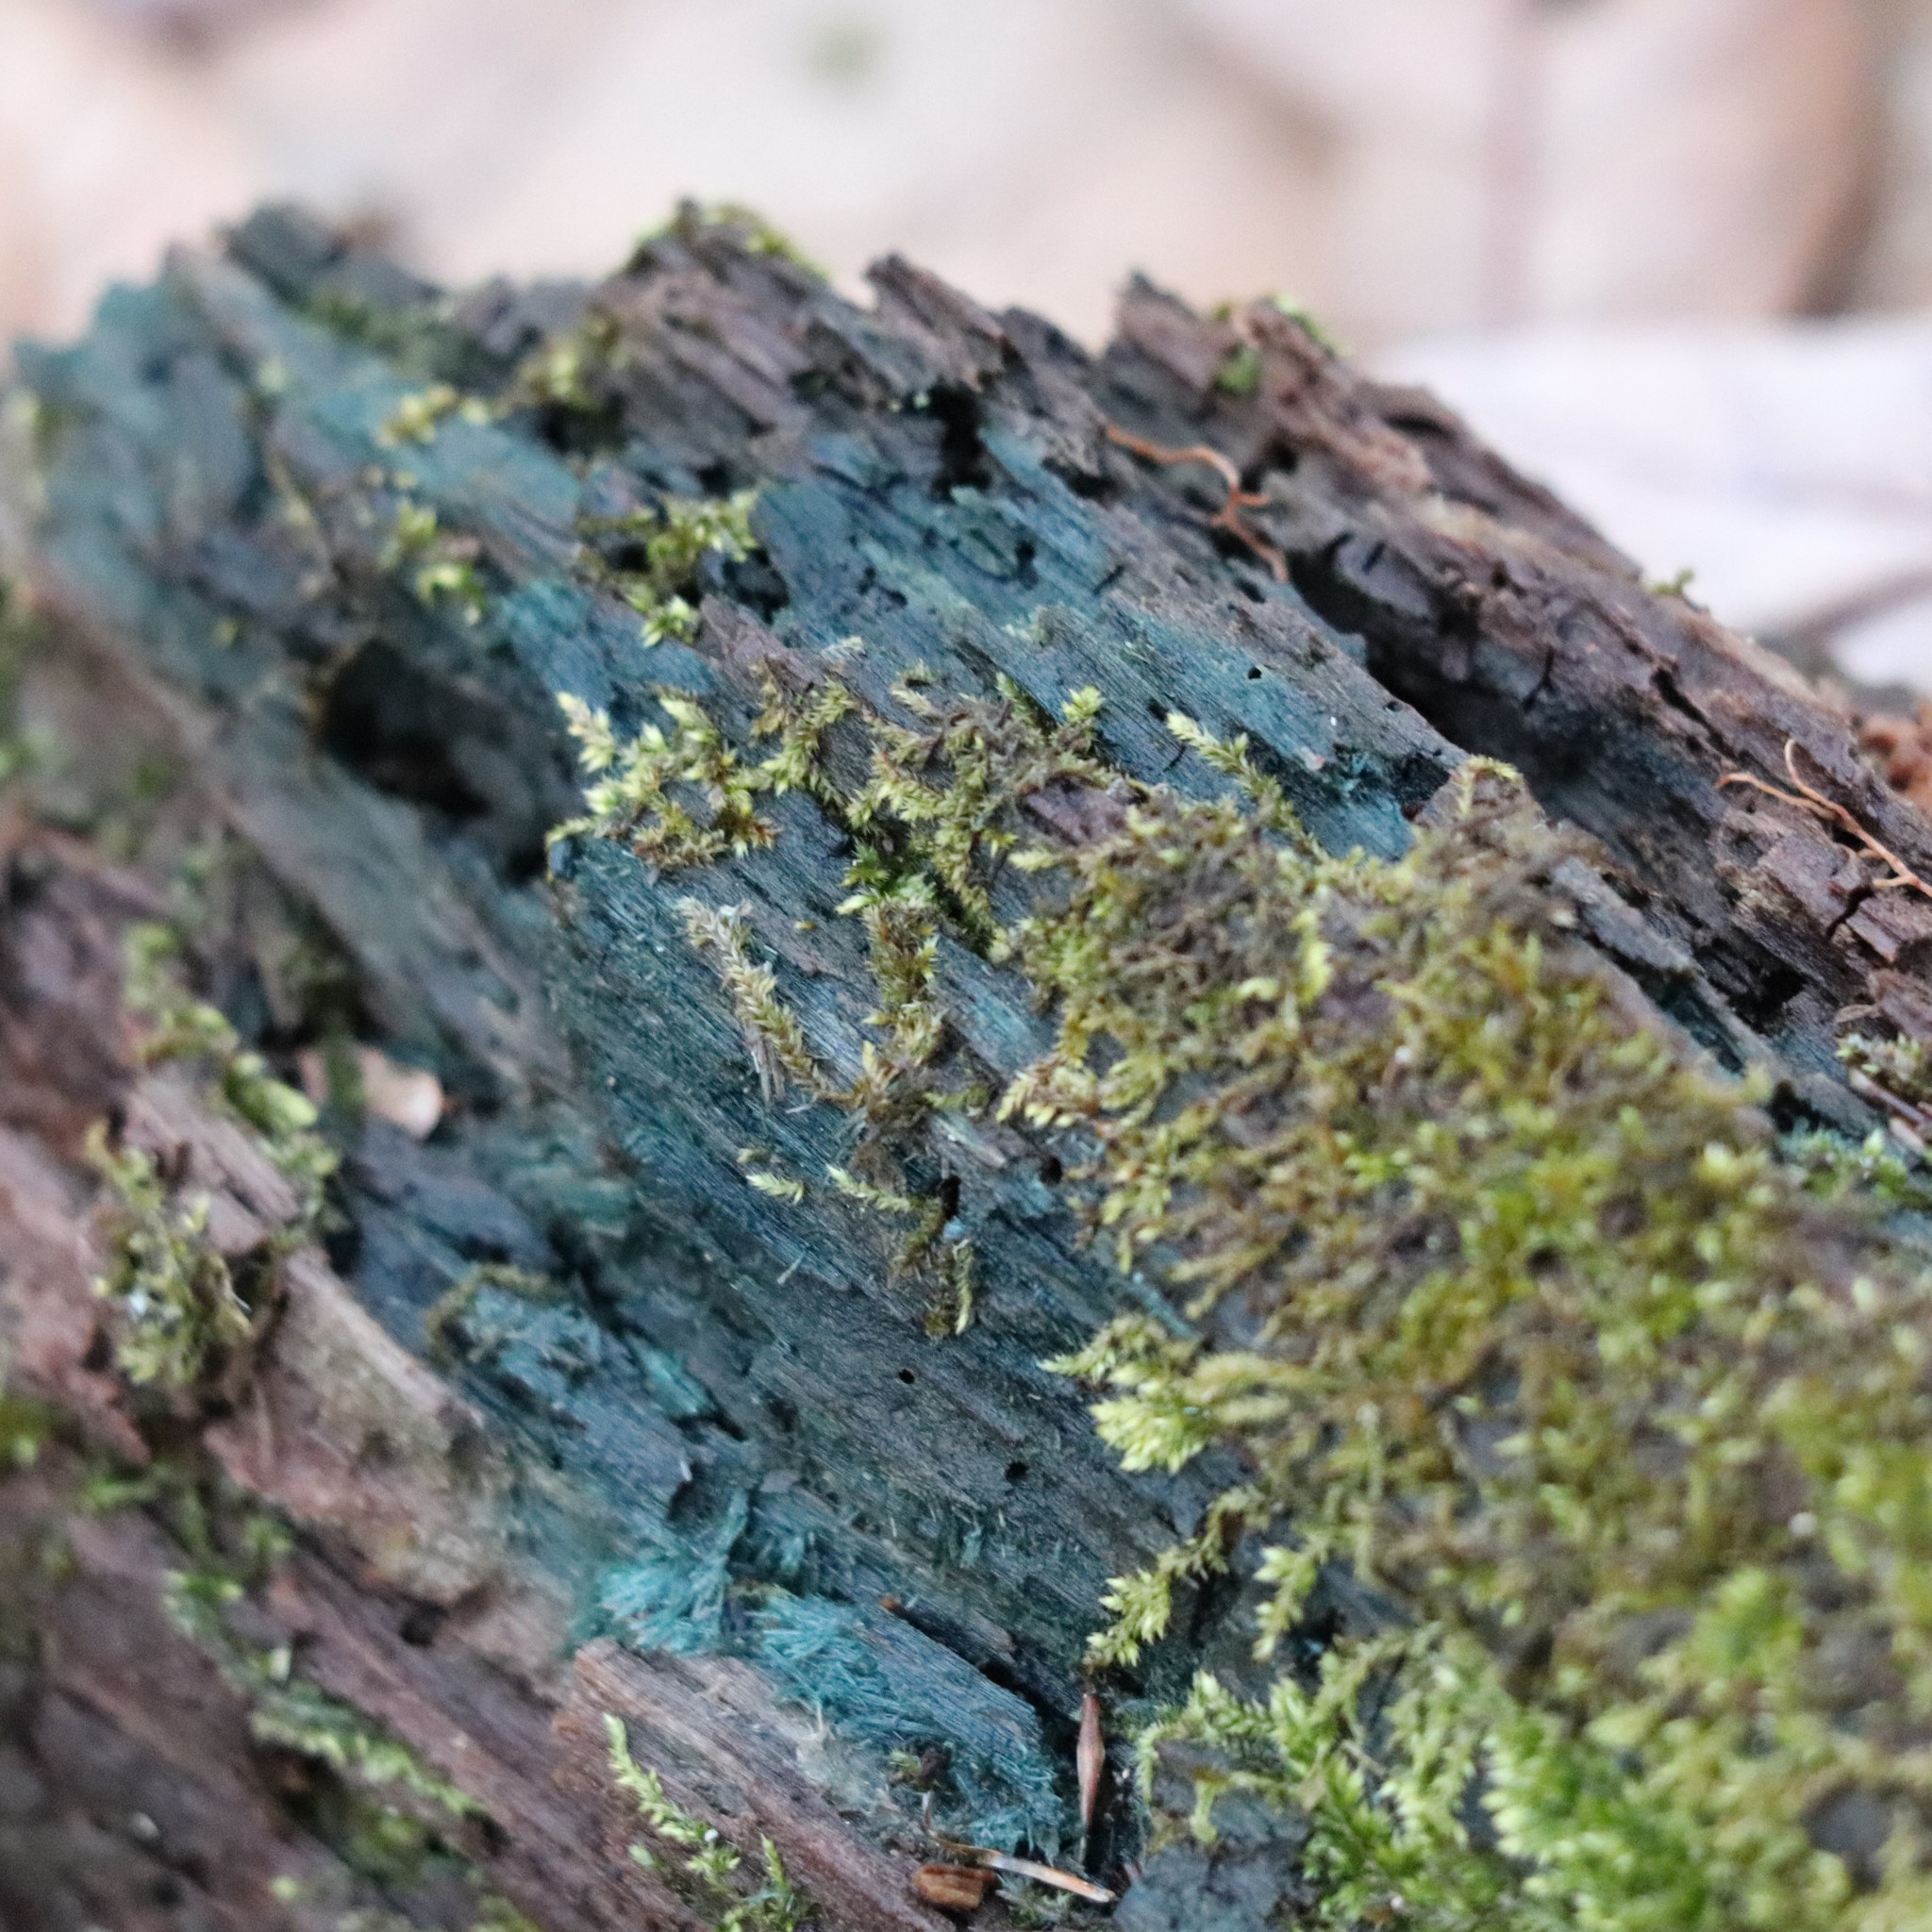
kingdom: Fungi
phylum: Ascomycota
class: Leotiomycetes
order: Helotiales
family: Chlorociboriaceae
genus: Chlorociboria
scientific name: Chlorociboria
